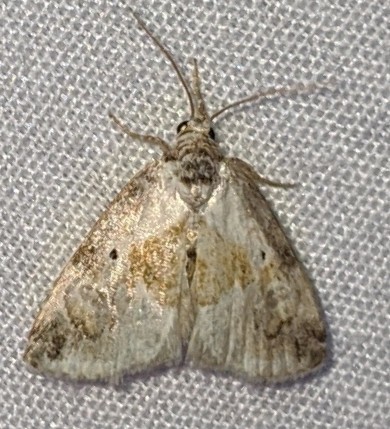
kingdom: Animalia
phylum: Arthropoda
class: Insecta
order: Lepidoptera
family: Noctuidae
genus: Maliattha
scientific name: Maliattha synochitis
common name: Black-dotted glyph
